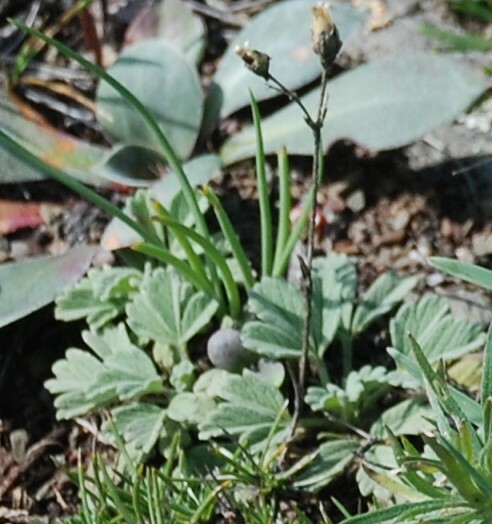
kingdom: Plantae
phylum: Tracheophyta
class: Magnoliopsida
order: Rosales
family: Rosaceae
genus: Potentilla
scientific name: Potentilla acaulis
